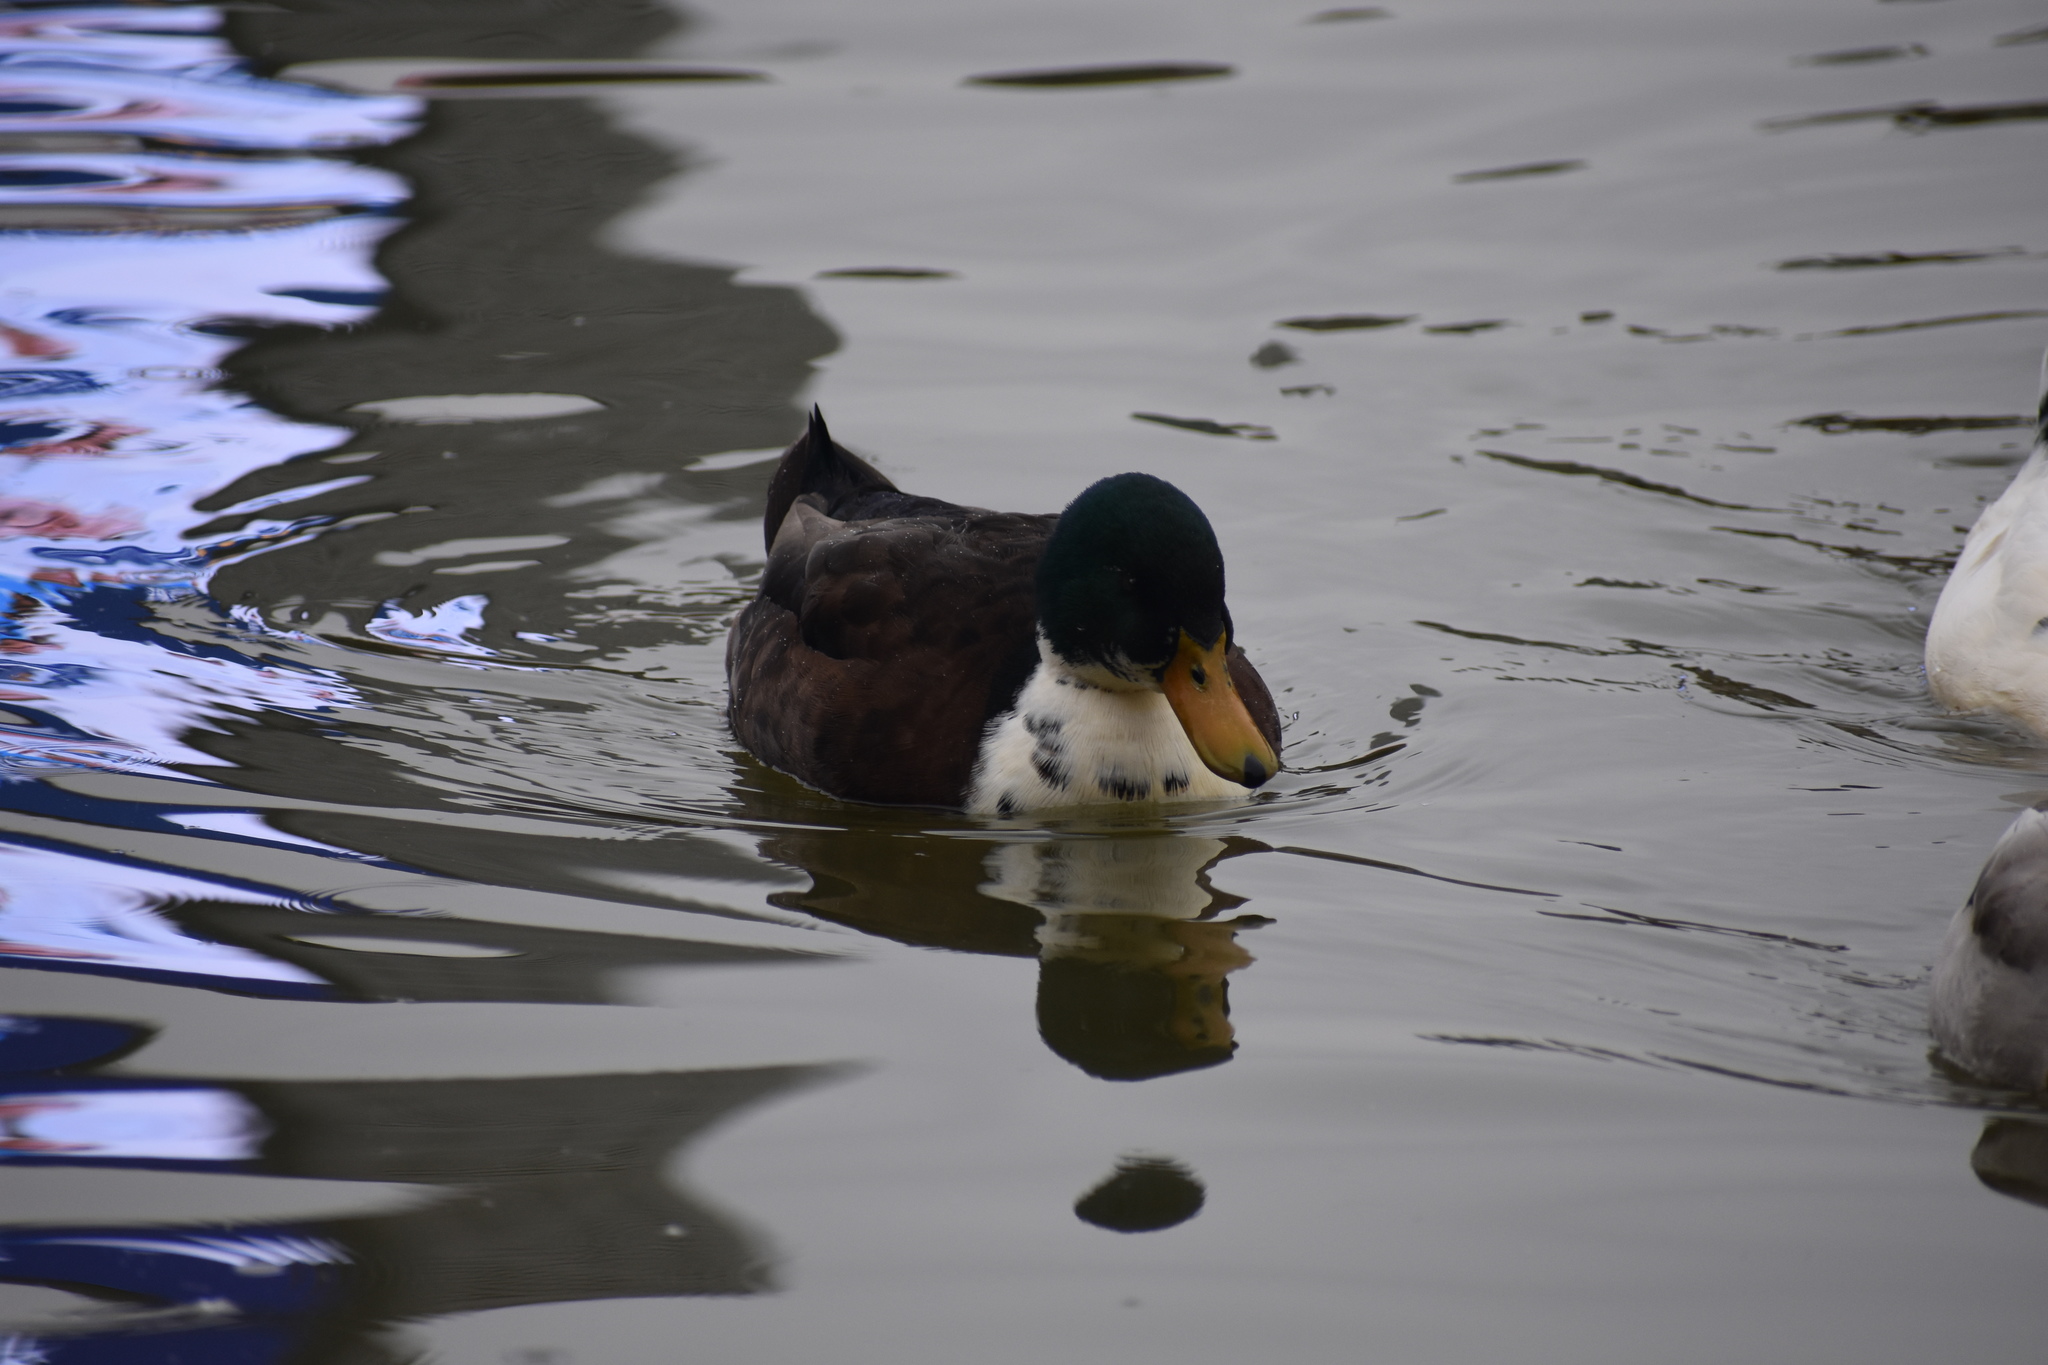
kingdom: Animalia
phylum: Chordata
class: Aves
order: Anseriformes
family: Anatidae
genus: Anas
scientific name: Anas platyrhynchos
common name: Mallard
